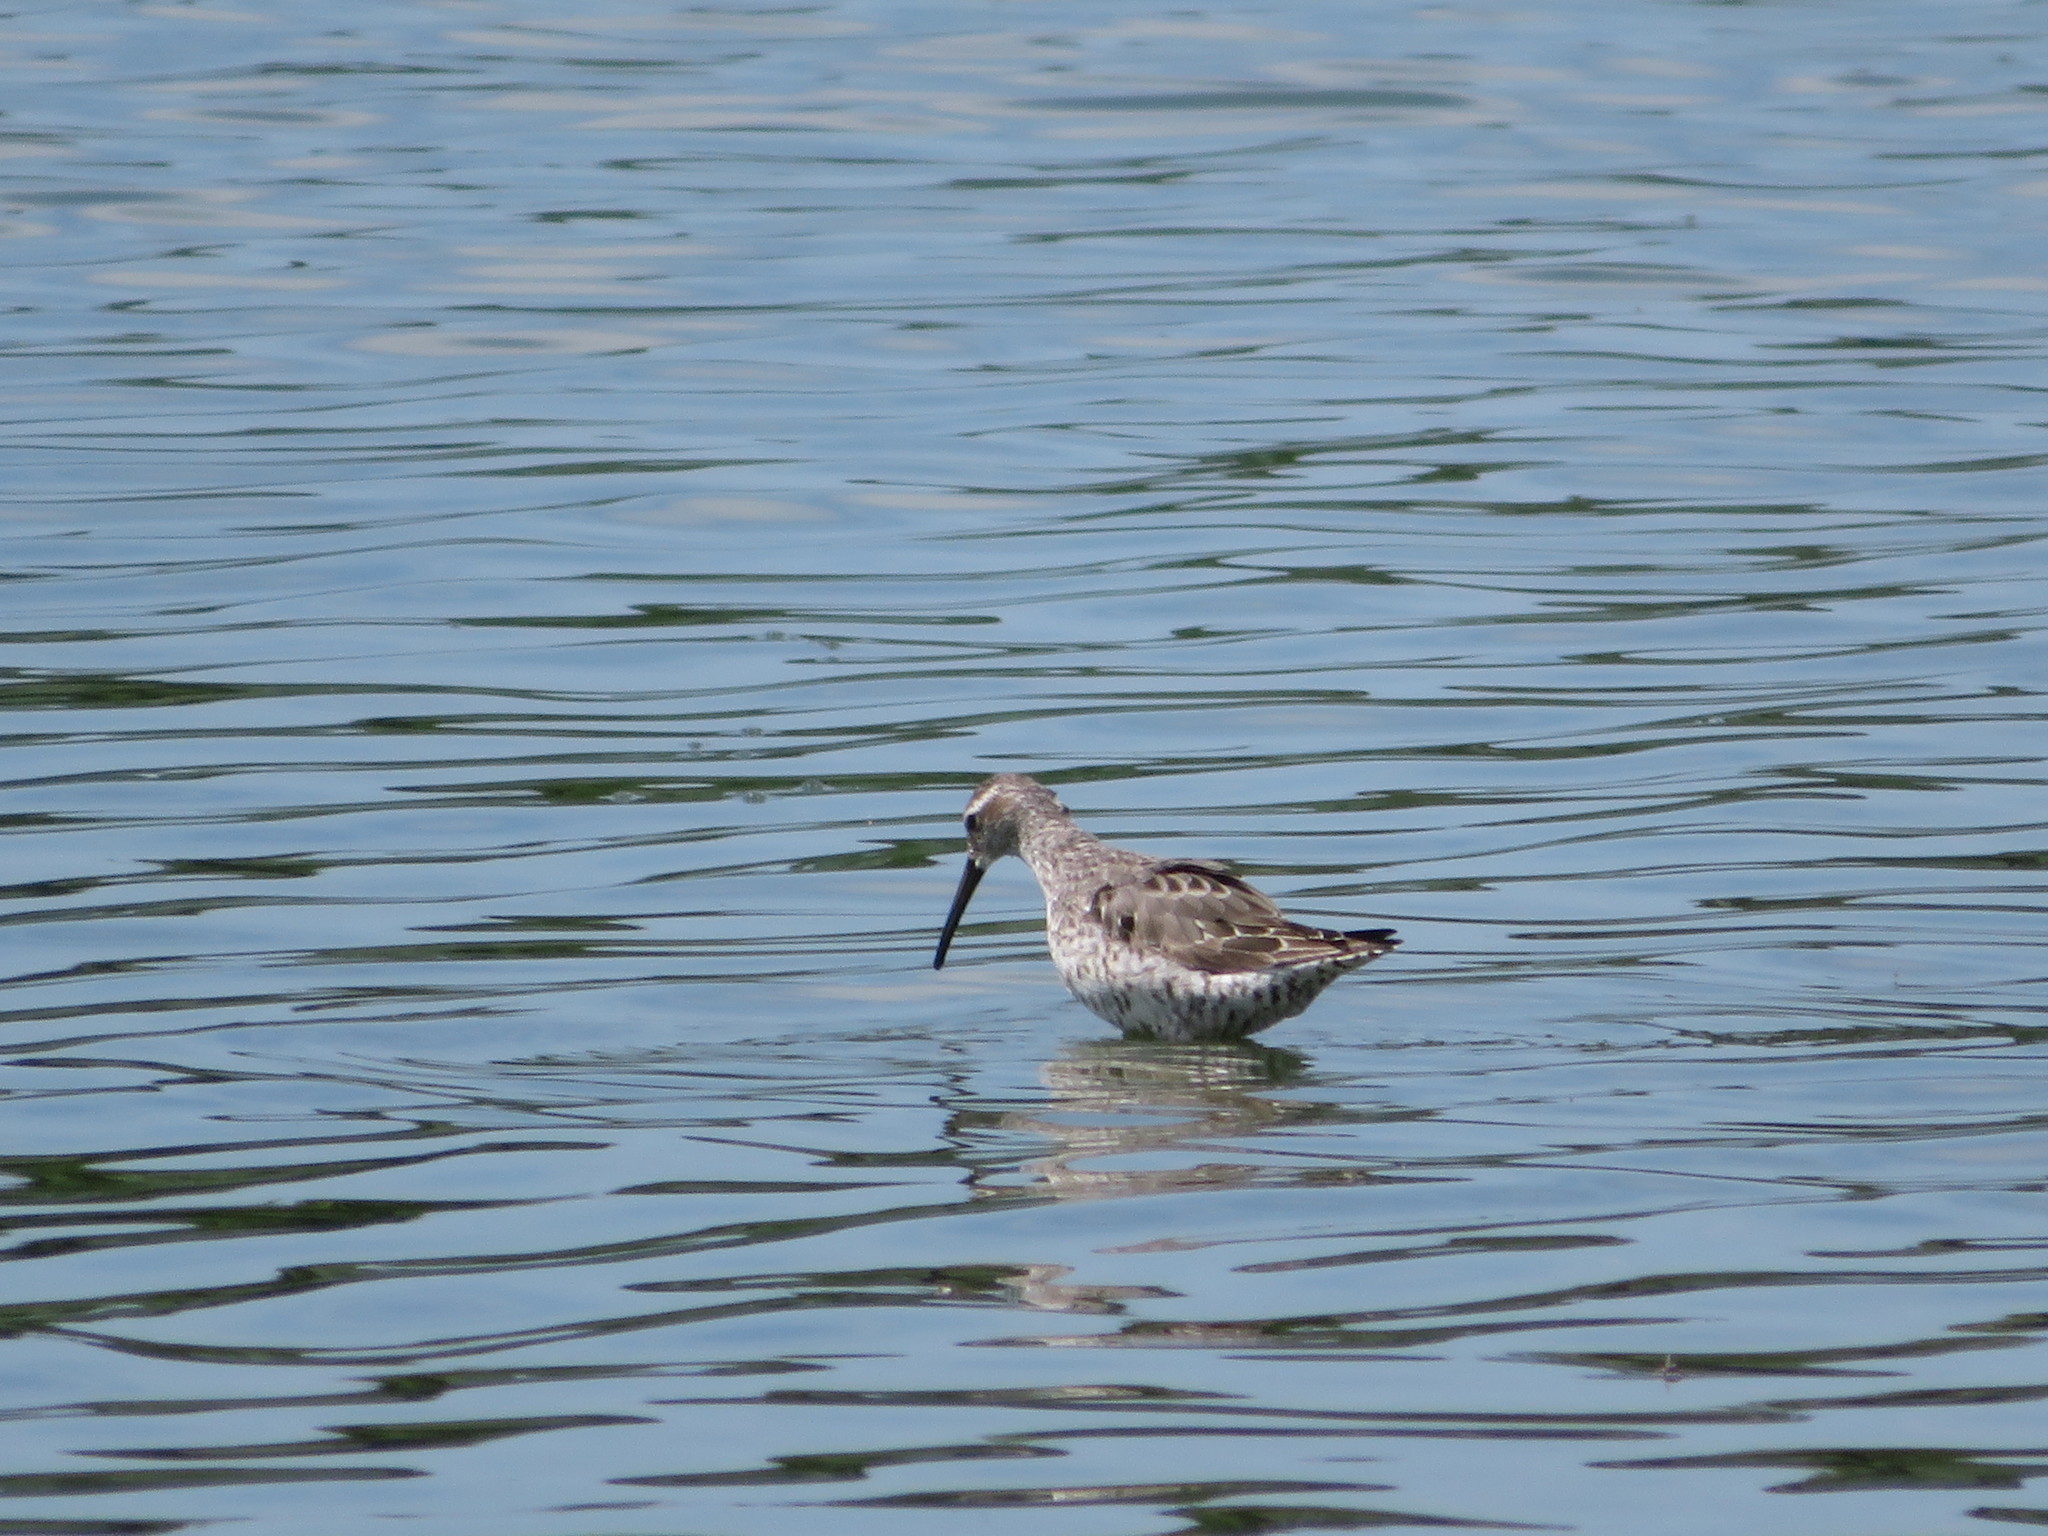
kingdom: Animalia
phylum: Chordata
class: Aves
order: Charadriiformes
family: Scolopacidae
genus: Calidris
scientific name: Calidris himantopus
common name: Stilt sandpiper
